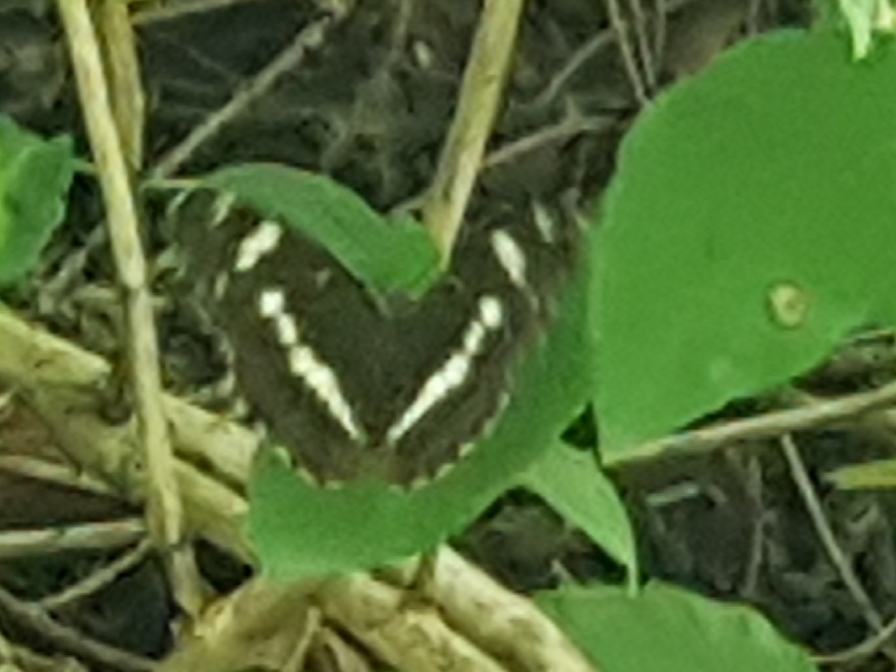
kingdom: Animalia
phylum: Arthropoda
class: Insecta
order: Lepidoptera
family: Nymphalidae
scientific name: Nymphalidae
